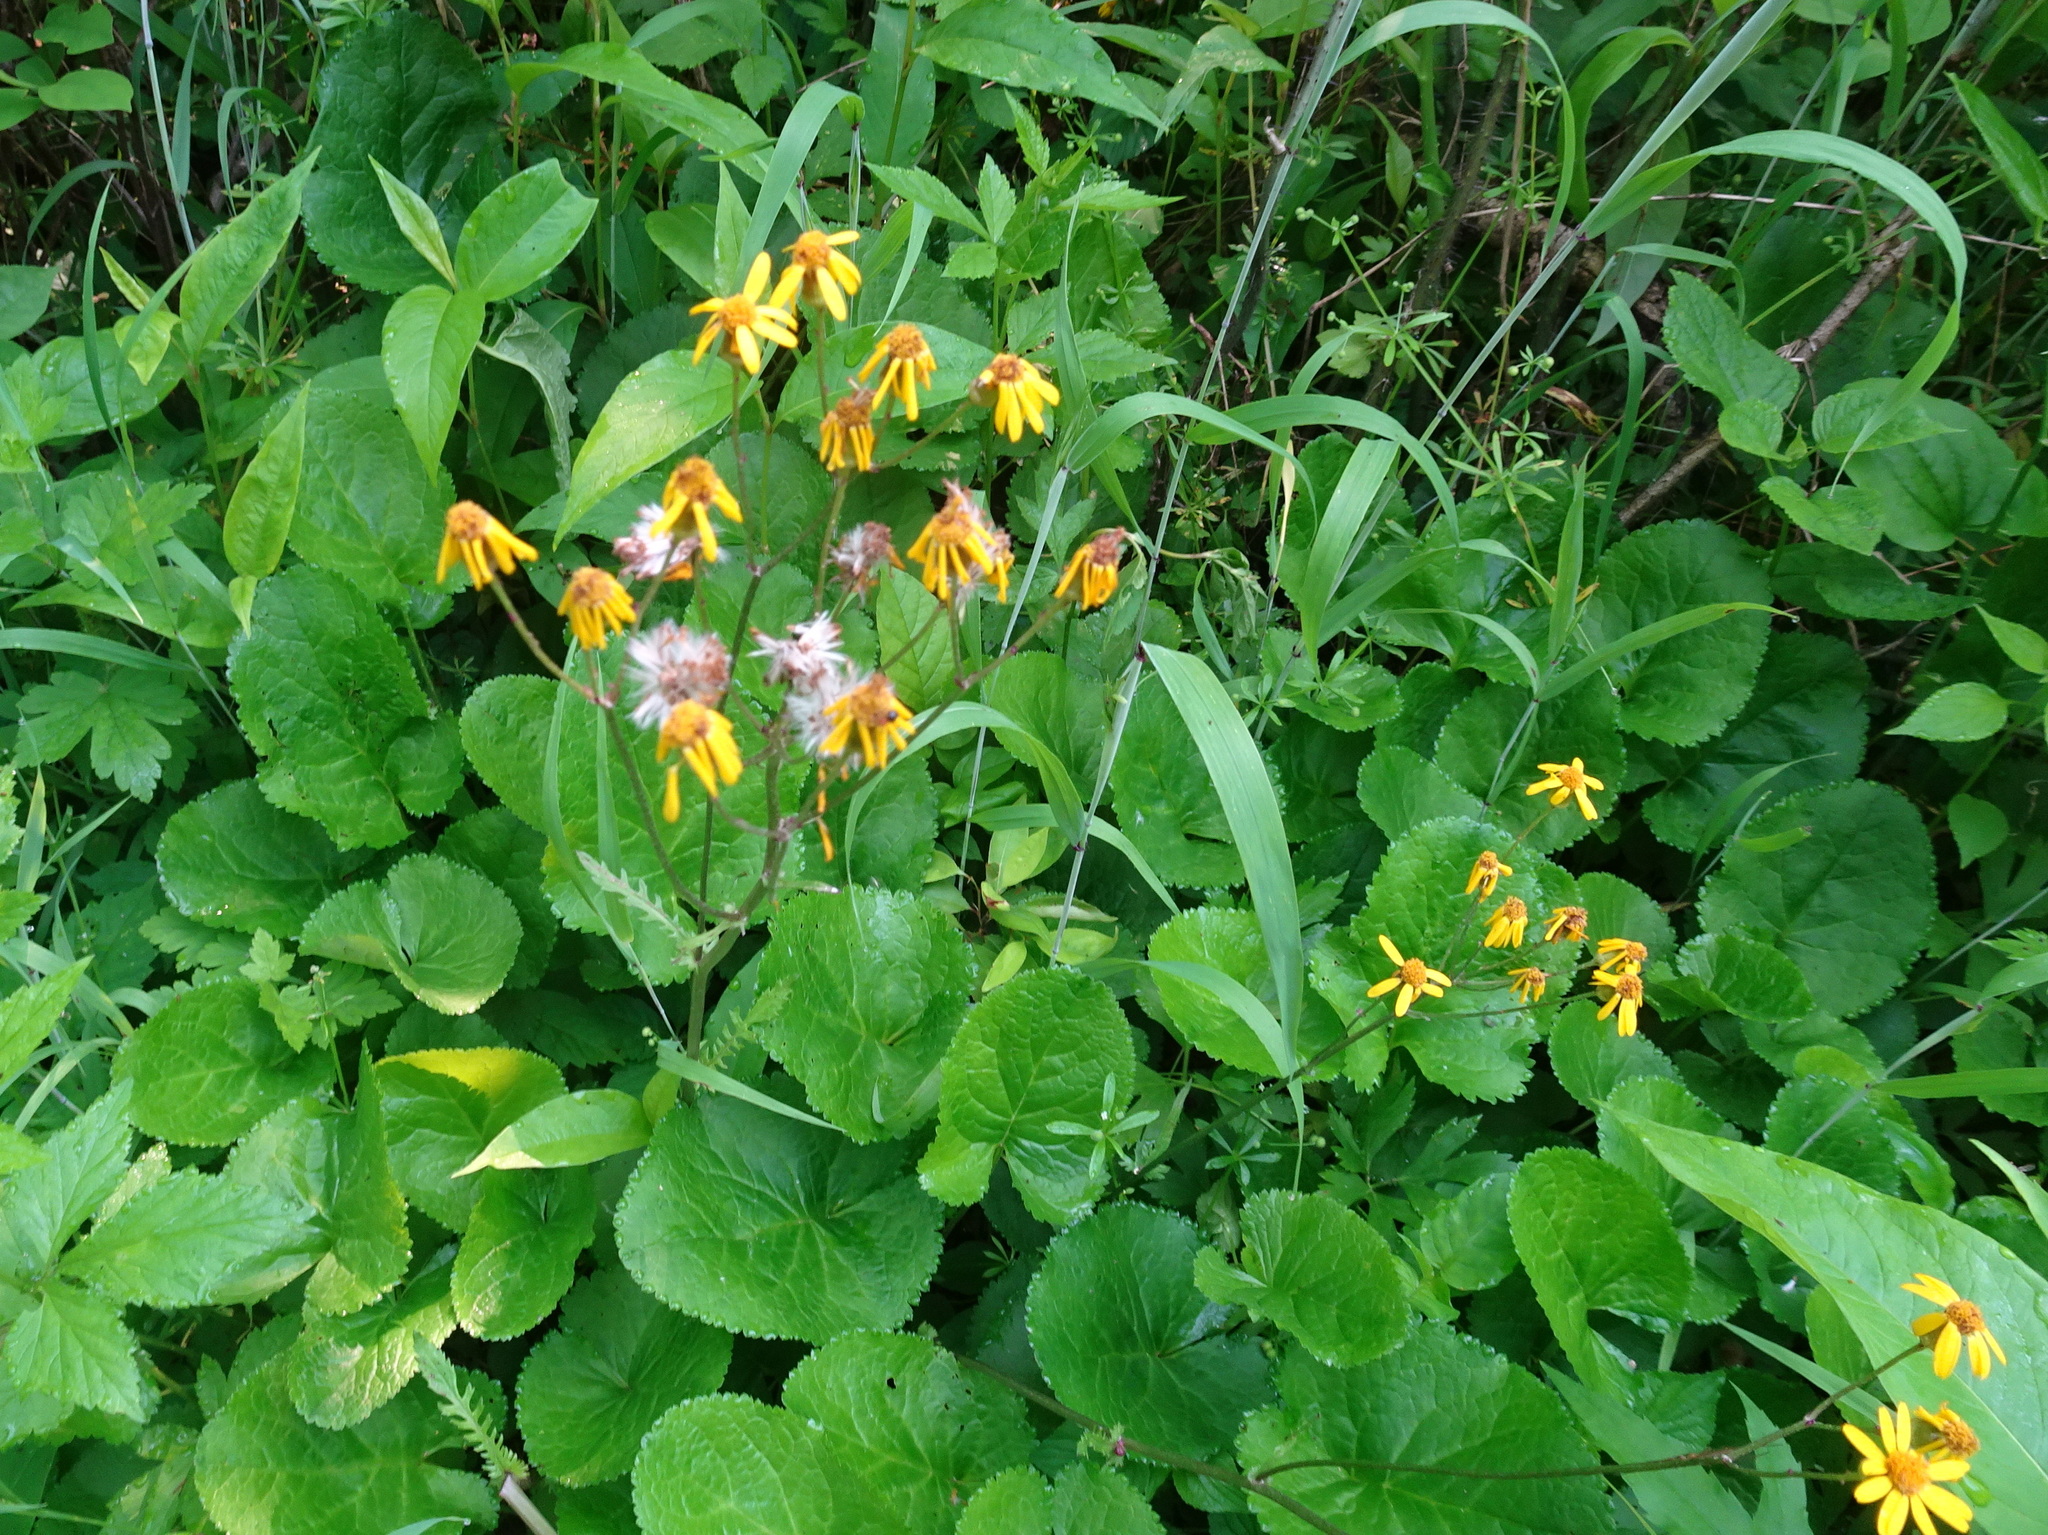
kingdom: Plantae
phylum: Tracheophyta
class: Magnoliopsida
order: Asterales
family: Asteraceae
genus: Packera
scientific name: Packera aurea
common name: Golden groundsel
